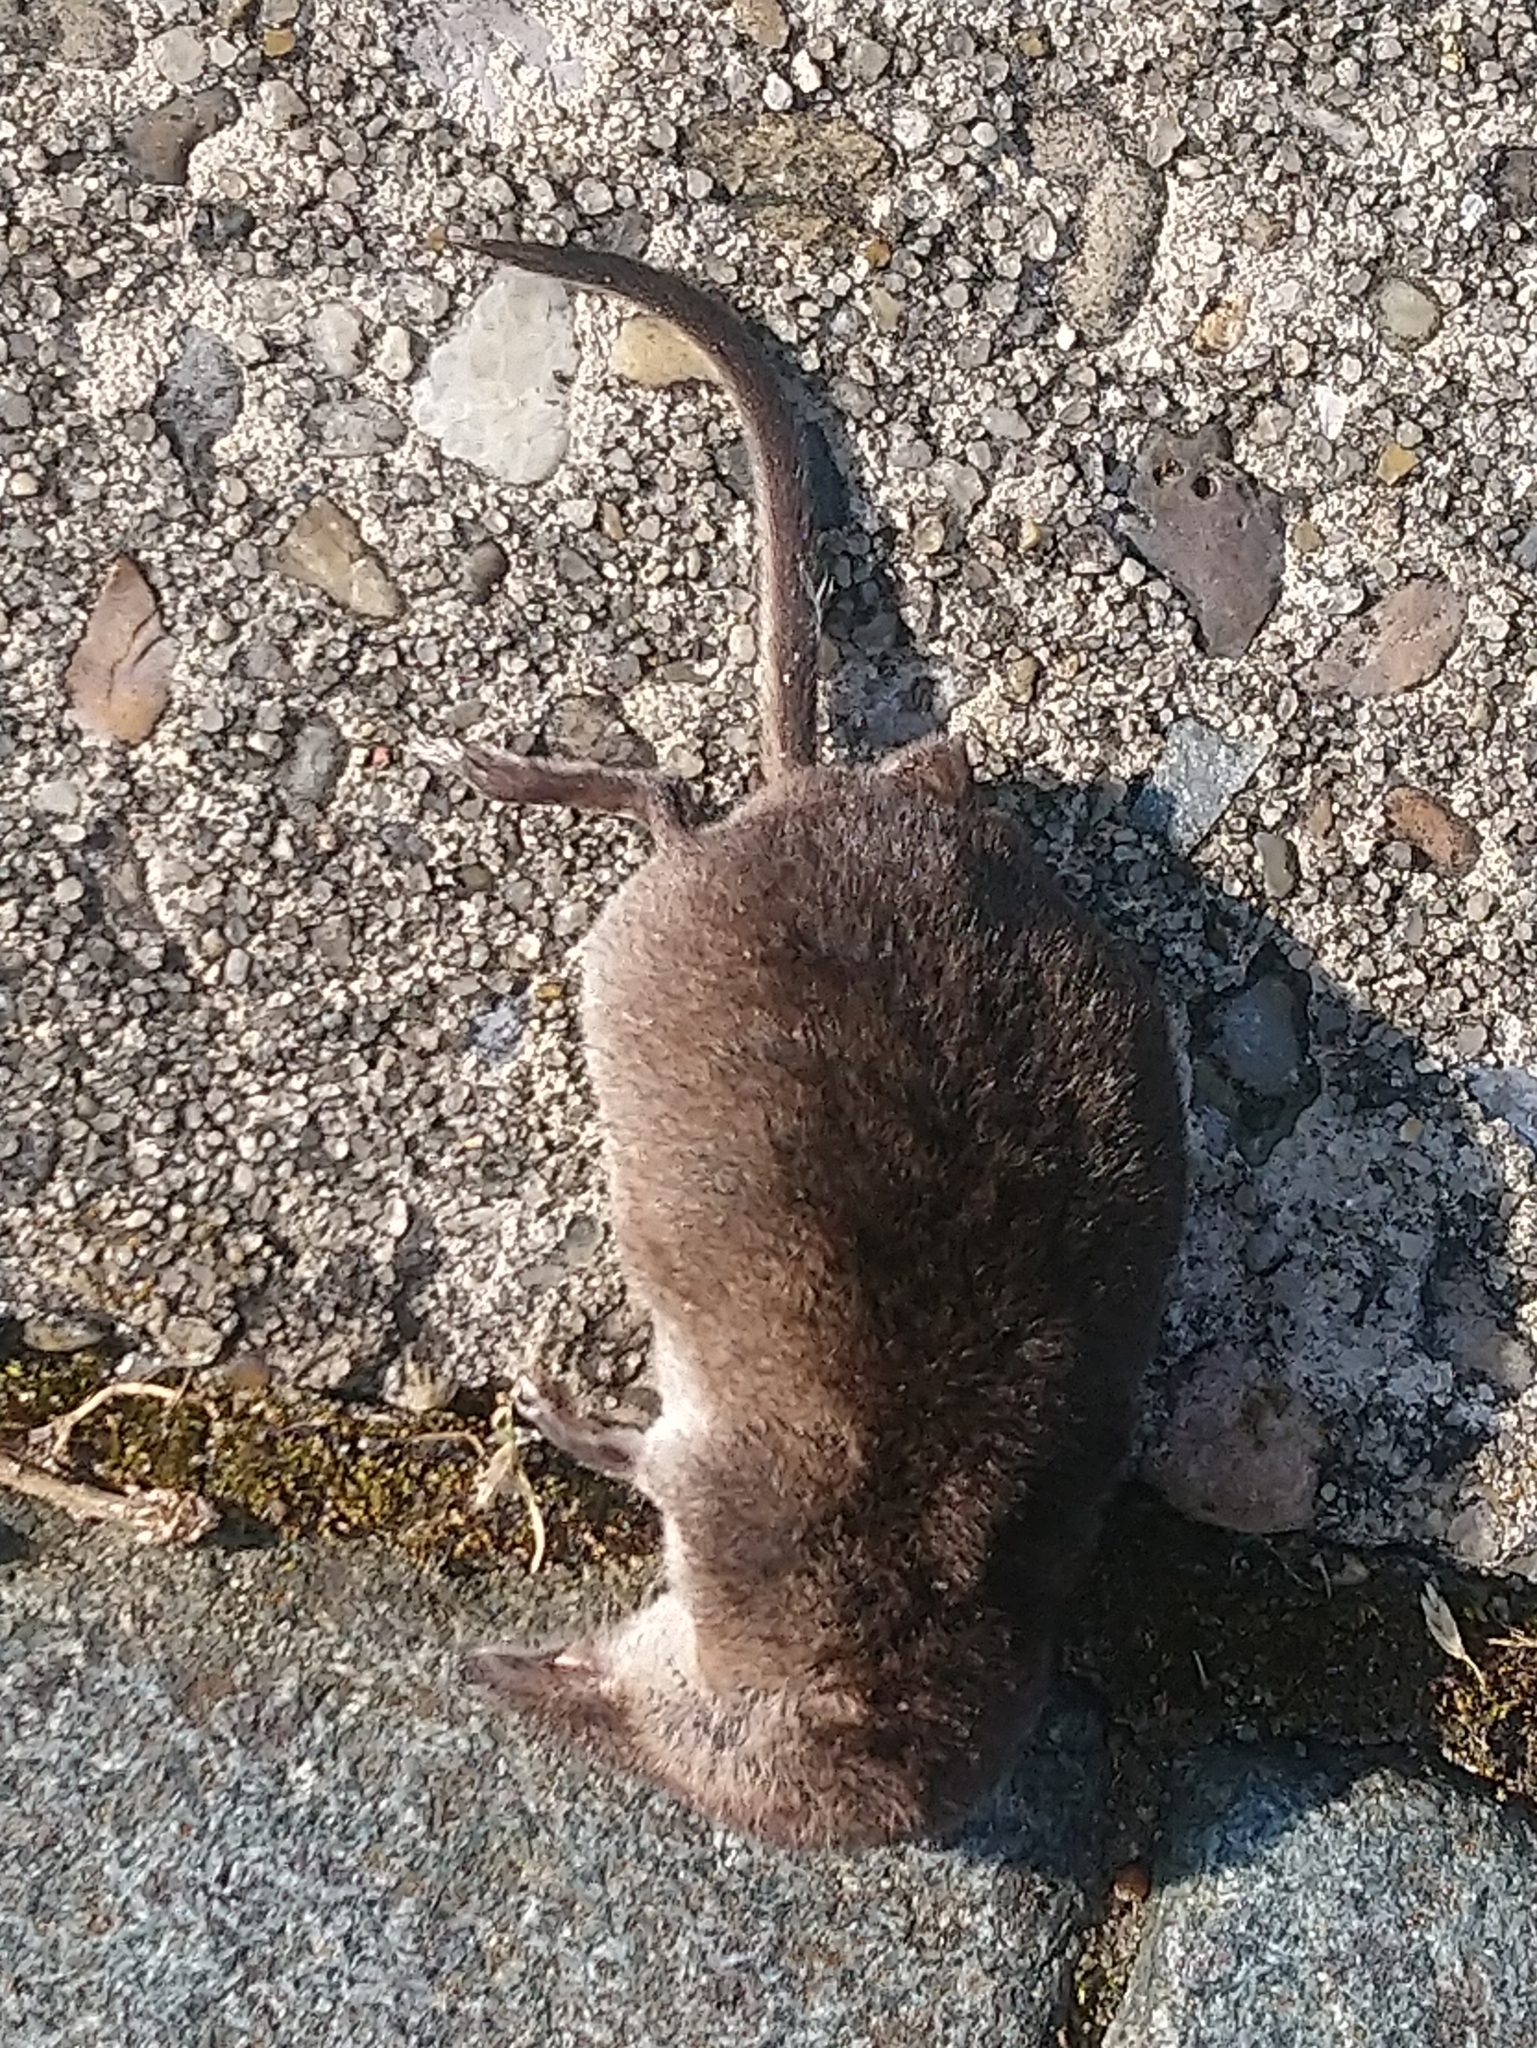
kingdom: Animalia
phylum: Chordata
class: Mammalia
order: Soricomorpha
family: Soricidae
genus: Sorex
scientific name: Sorex araneus
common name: Common shrew
